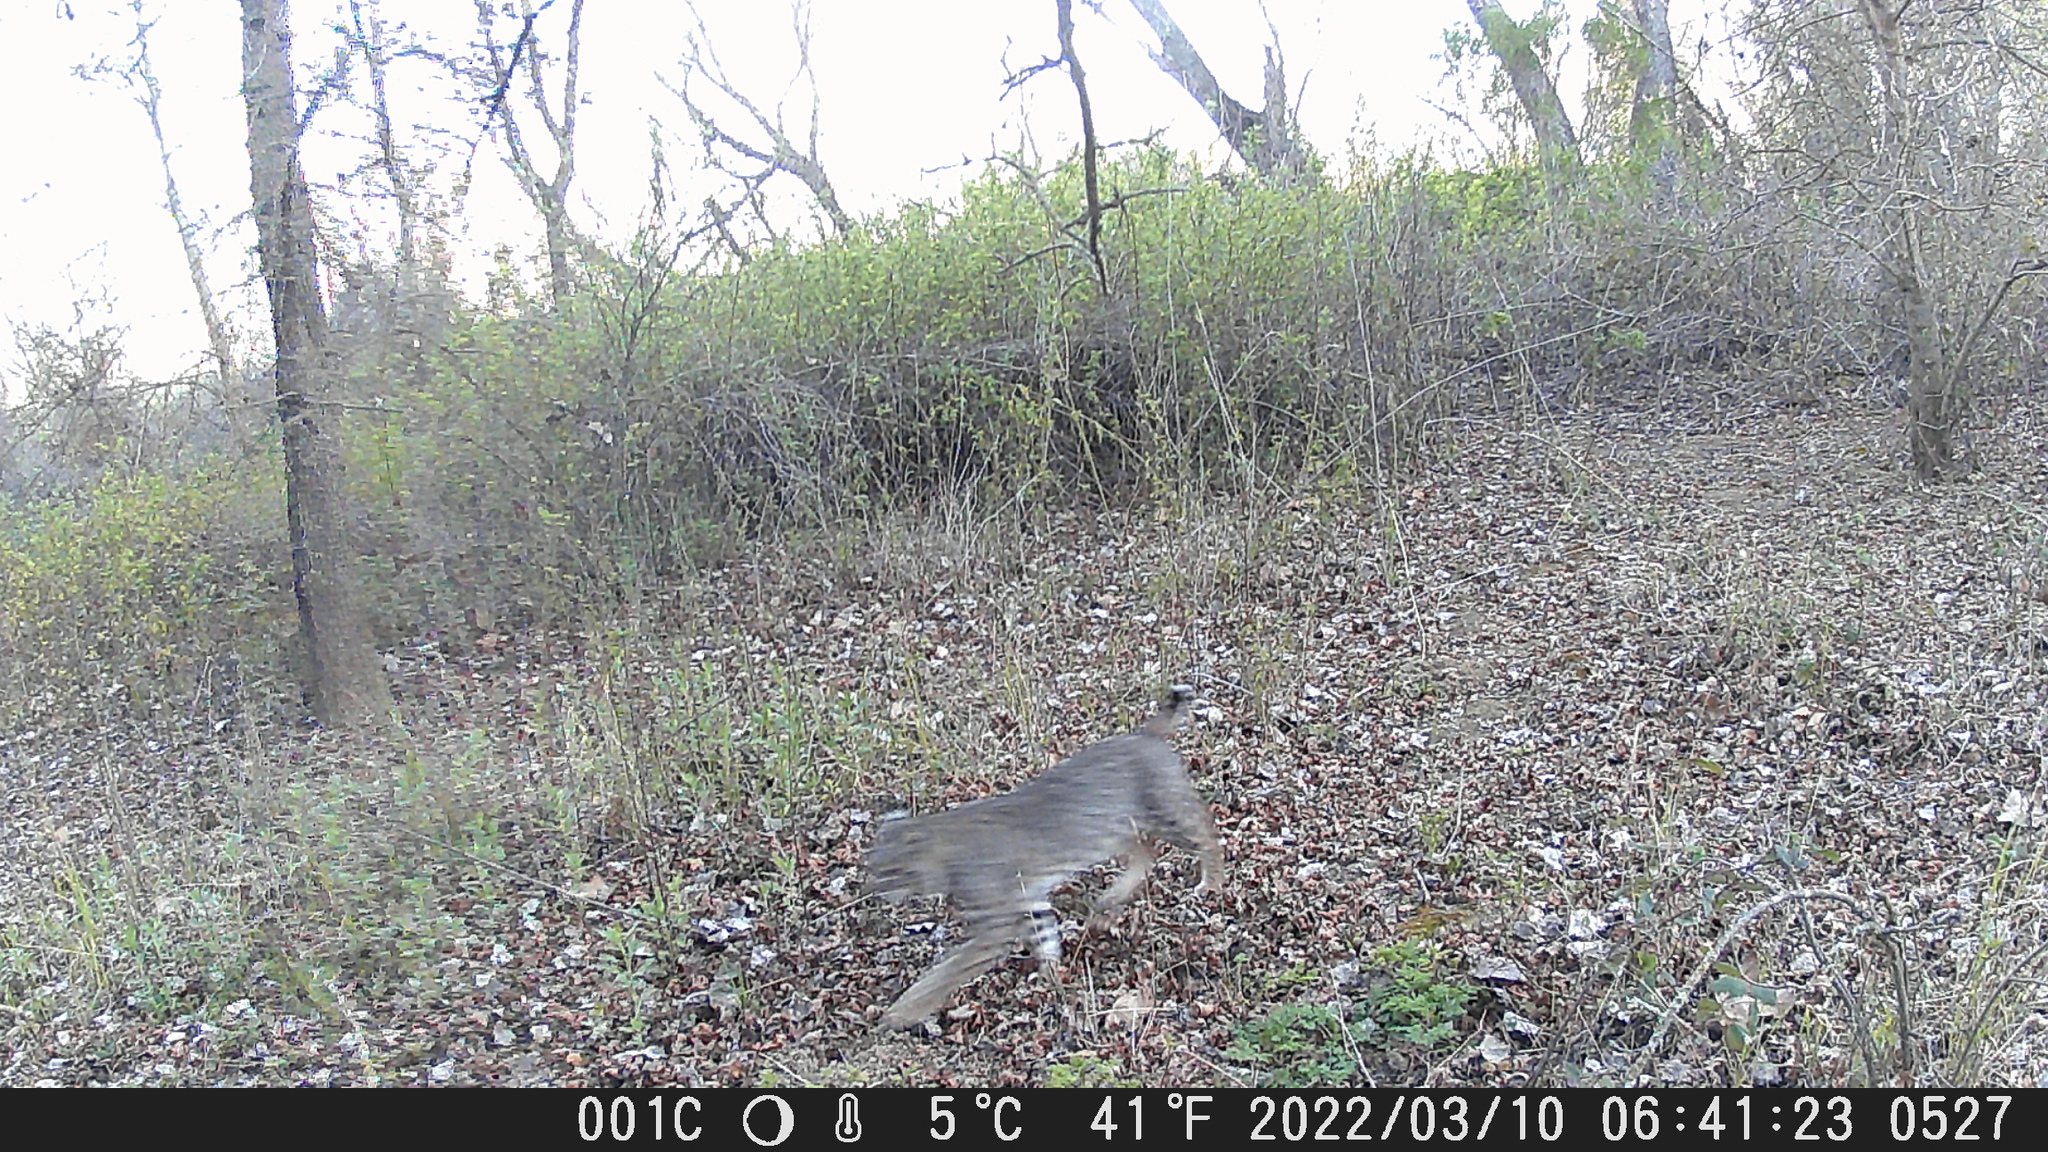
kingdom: Animalia
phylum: Chordata
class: Mammalia
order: Carnivora
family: Felidae
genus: Lynx
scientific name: Lynx rufus
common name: Bobcat
